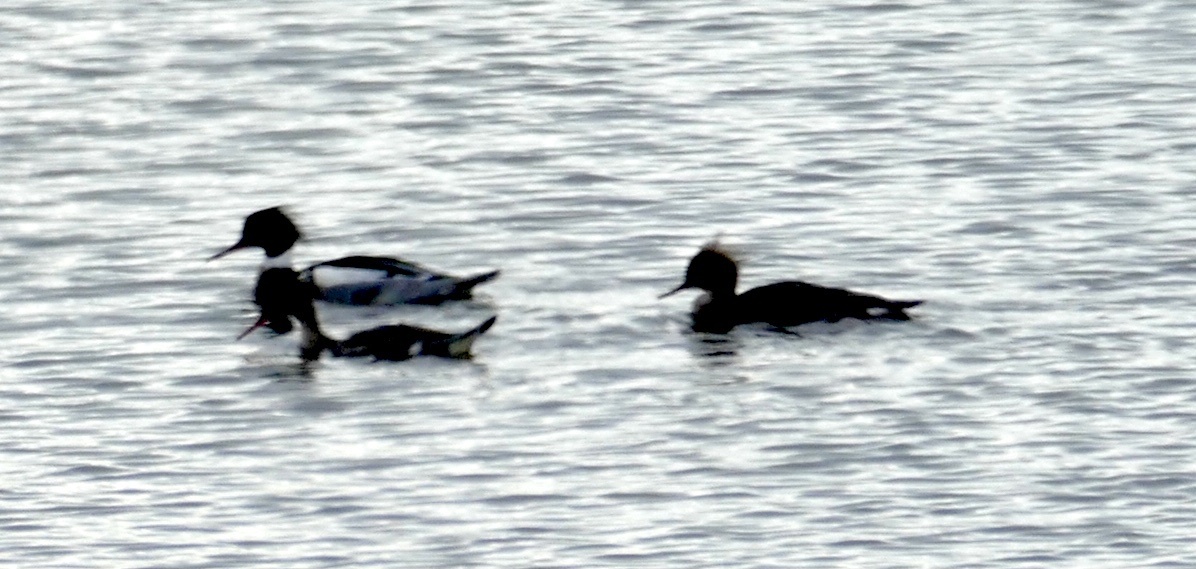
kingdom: Animalia
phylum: Chordata
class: Aves
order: Anseriformes
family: Anatidae
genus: Mergus
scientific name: Mergus serrator
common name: Red-breasted merganser
